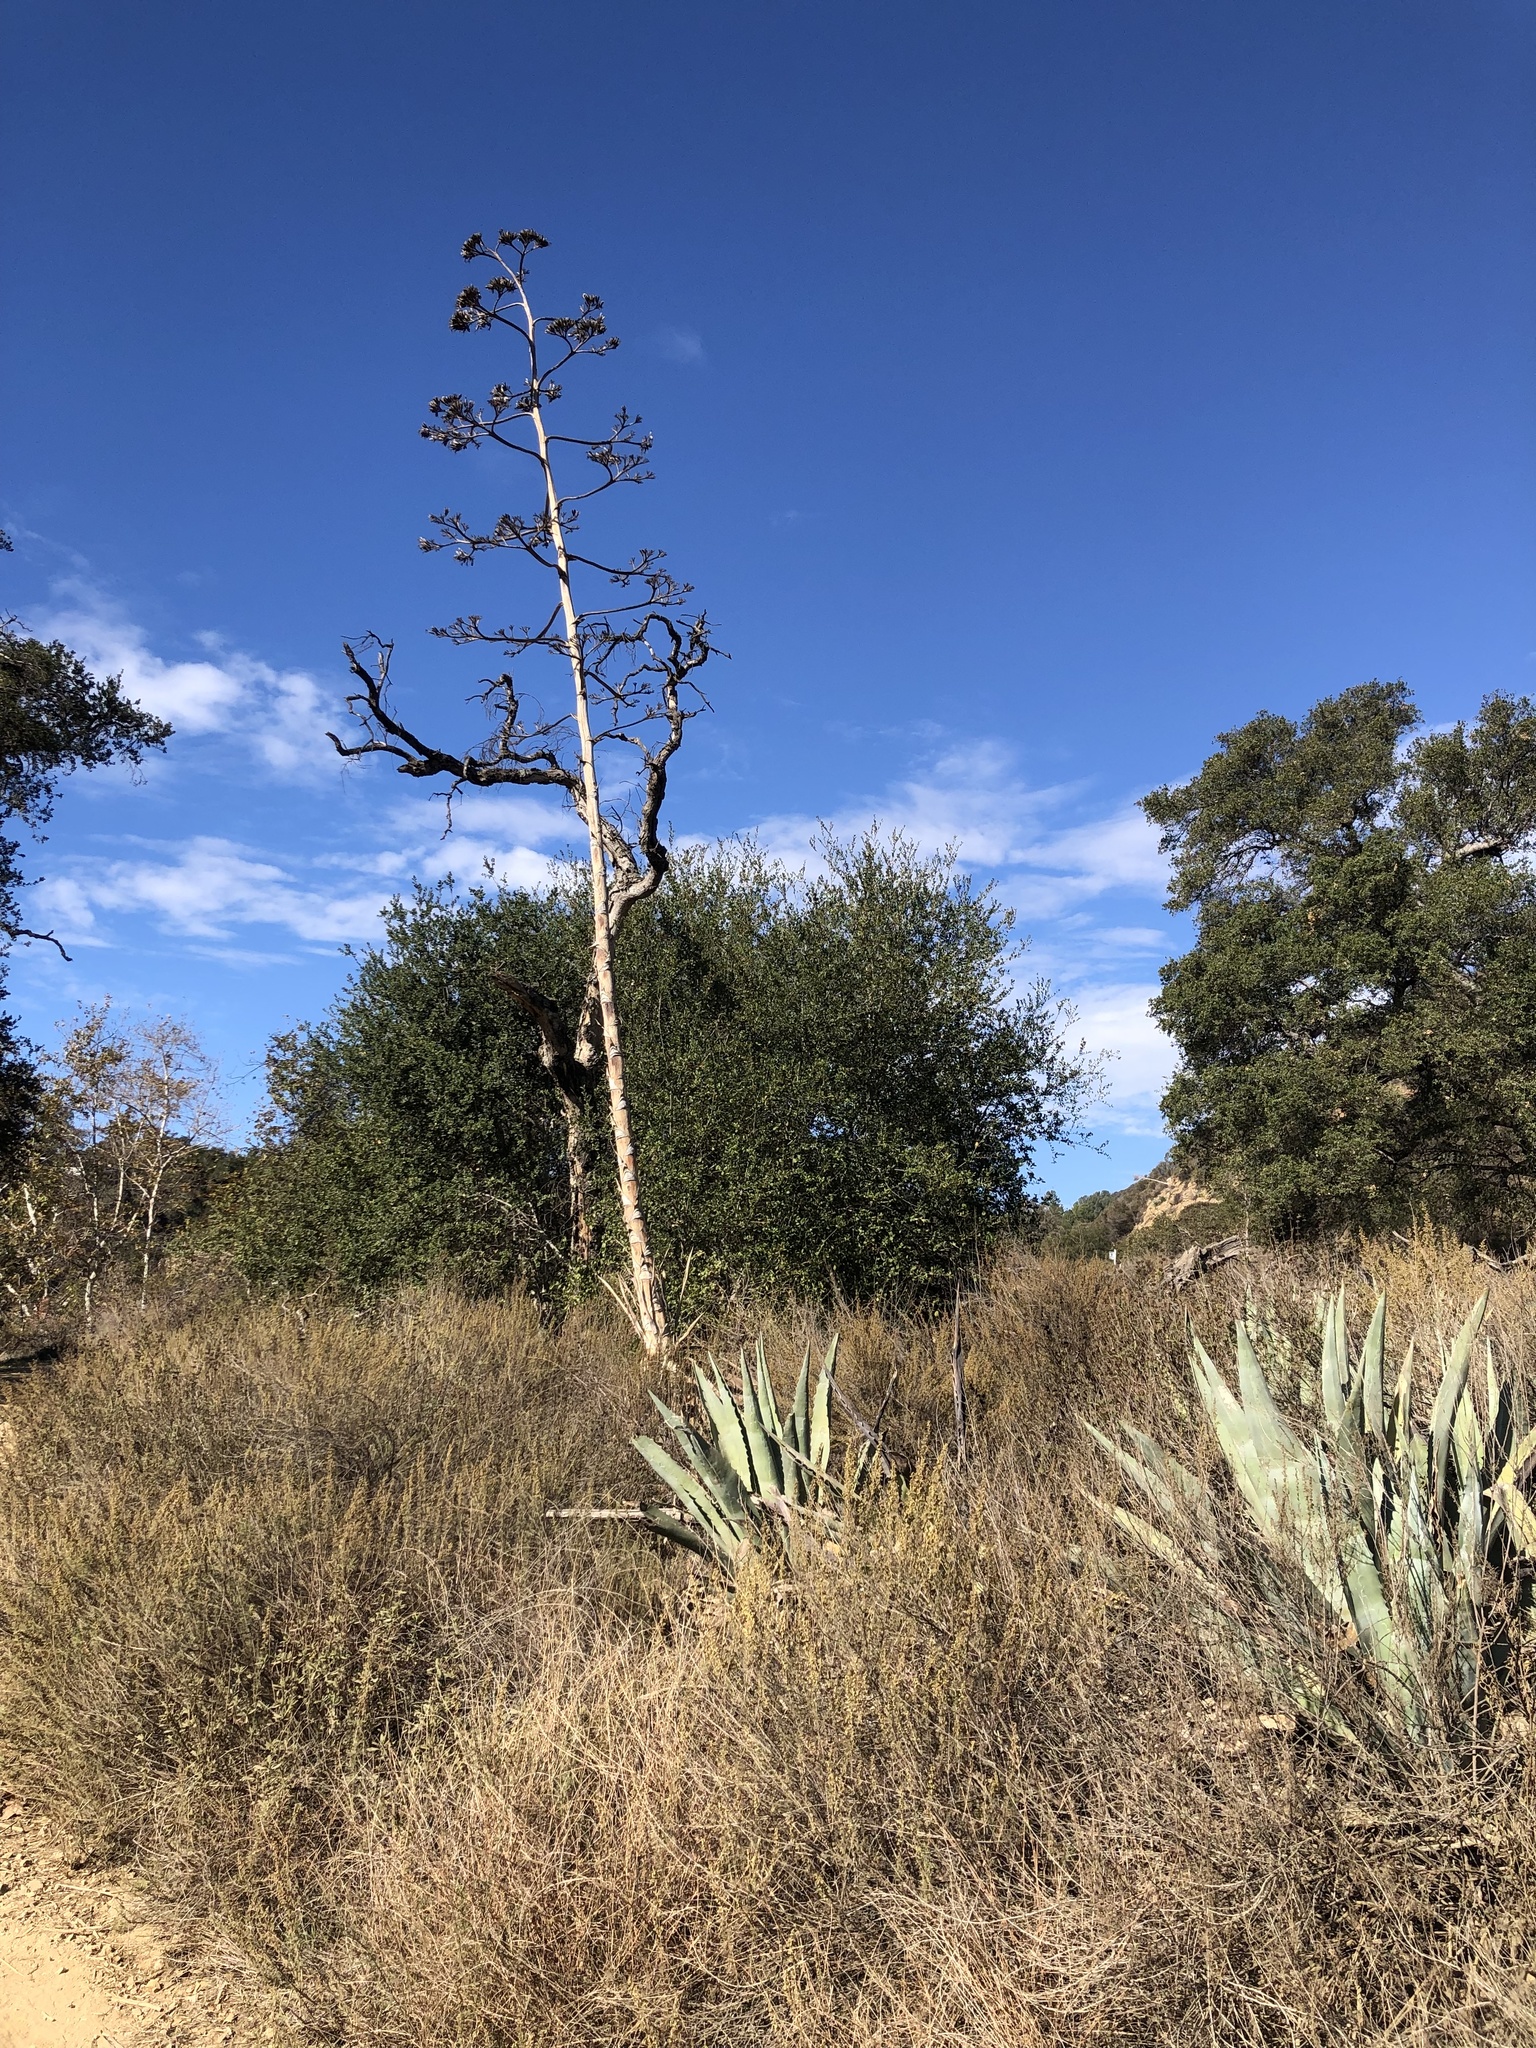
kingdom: Plantae
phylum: Tracheophyta
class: Liliopsida
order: Asparagales
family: Asparagaceae
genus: Agave
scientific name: Agave americana
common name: Centuryplant
